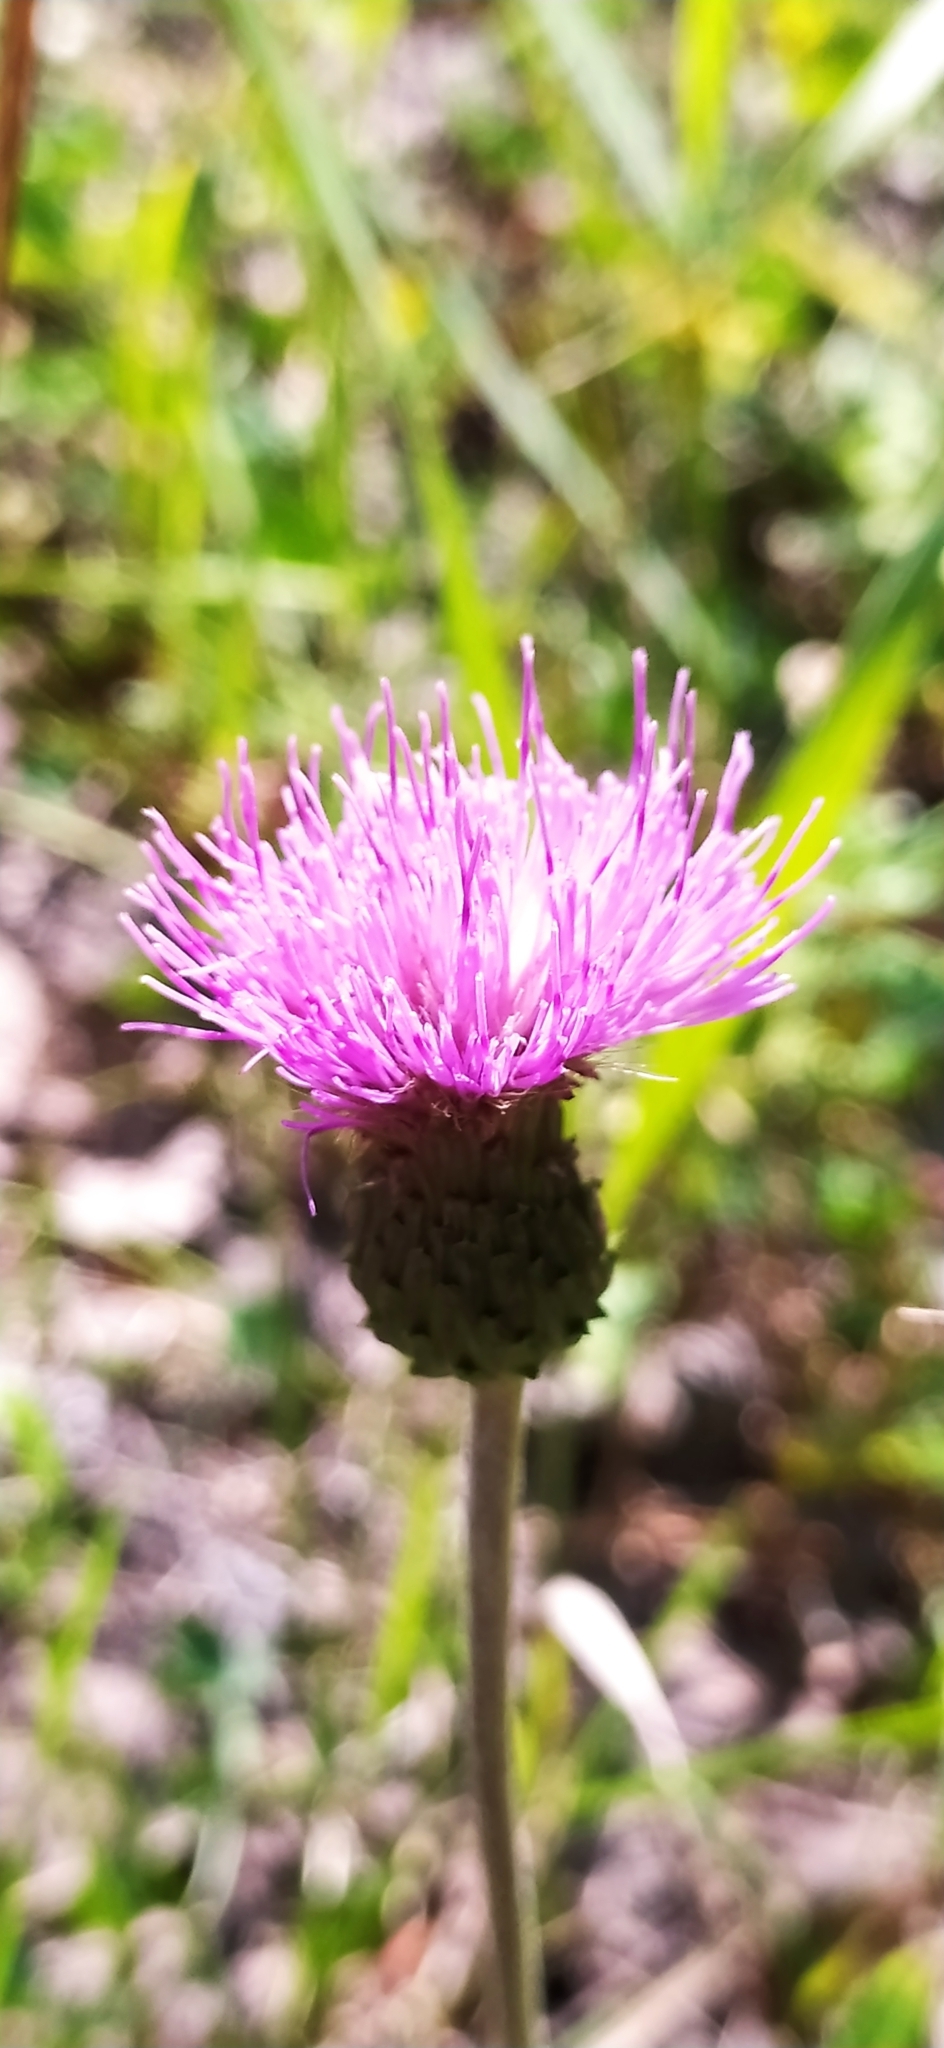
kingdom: Plantae
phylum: Tracheophyta
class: Magnoliopsida
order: Asterales
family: Asteraceae
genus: Cirsium
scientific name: Cirsium heterophyllum
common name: Melancholy thistle
